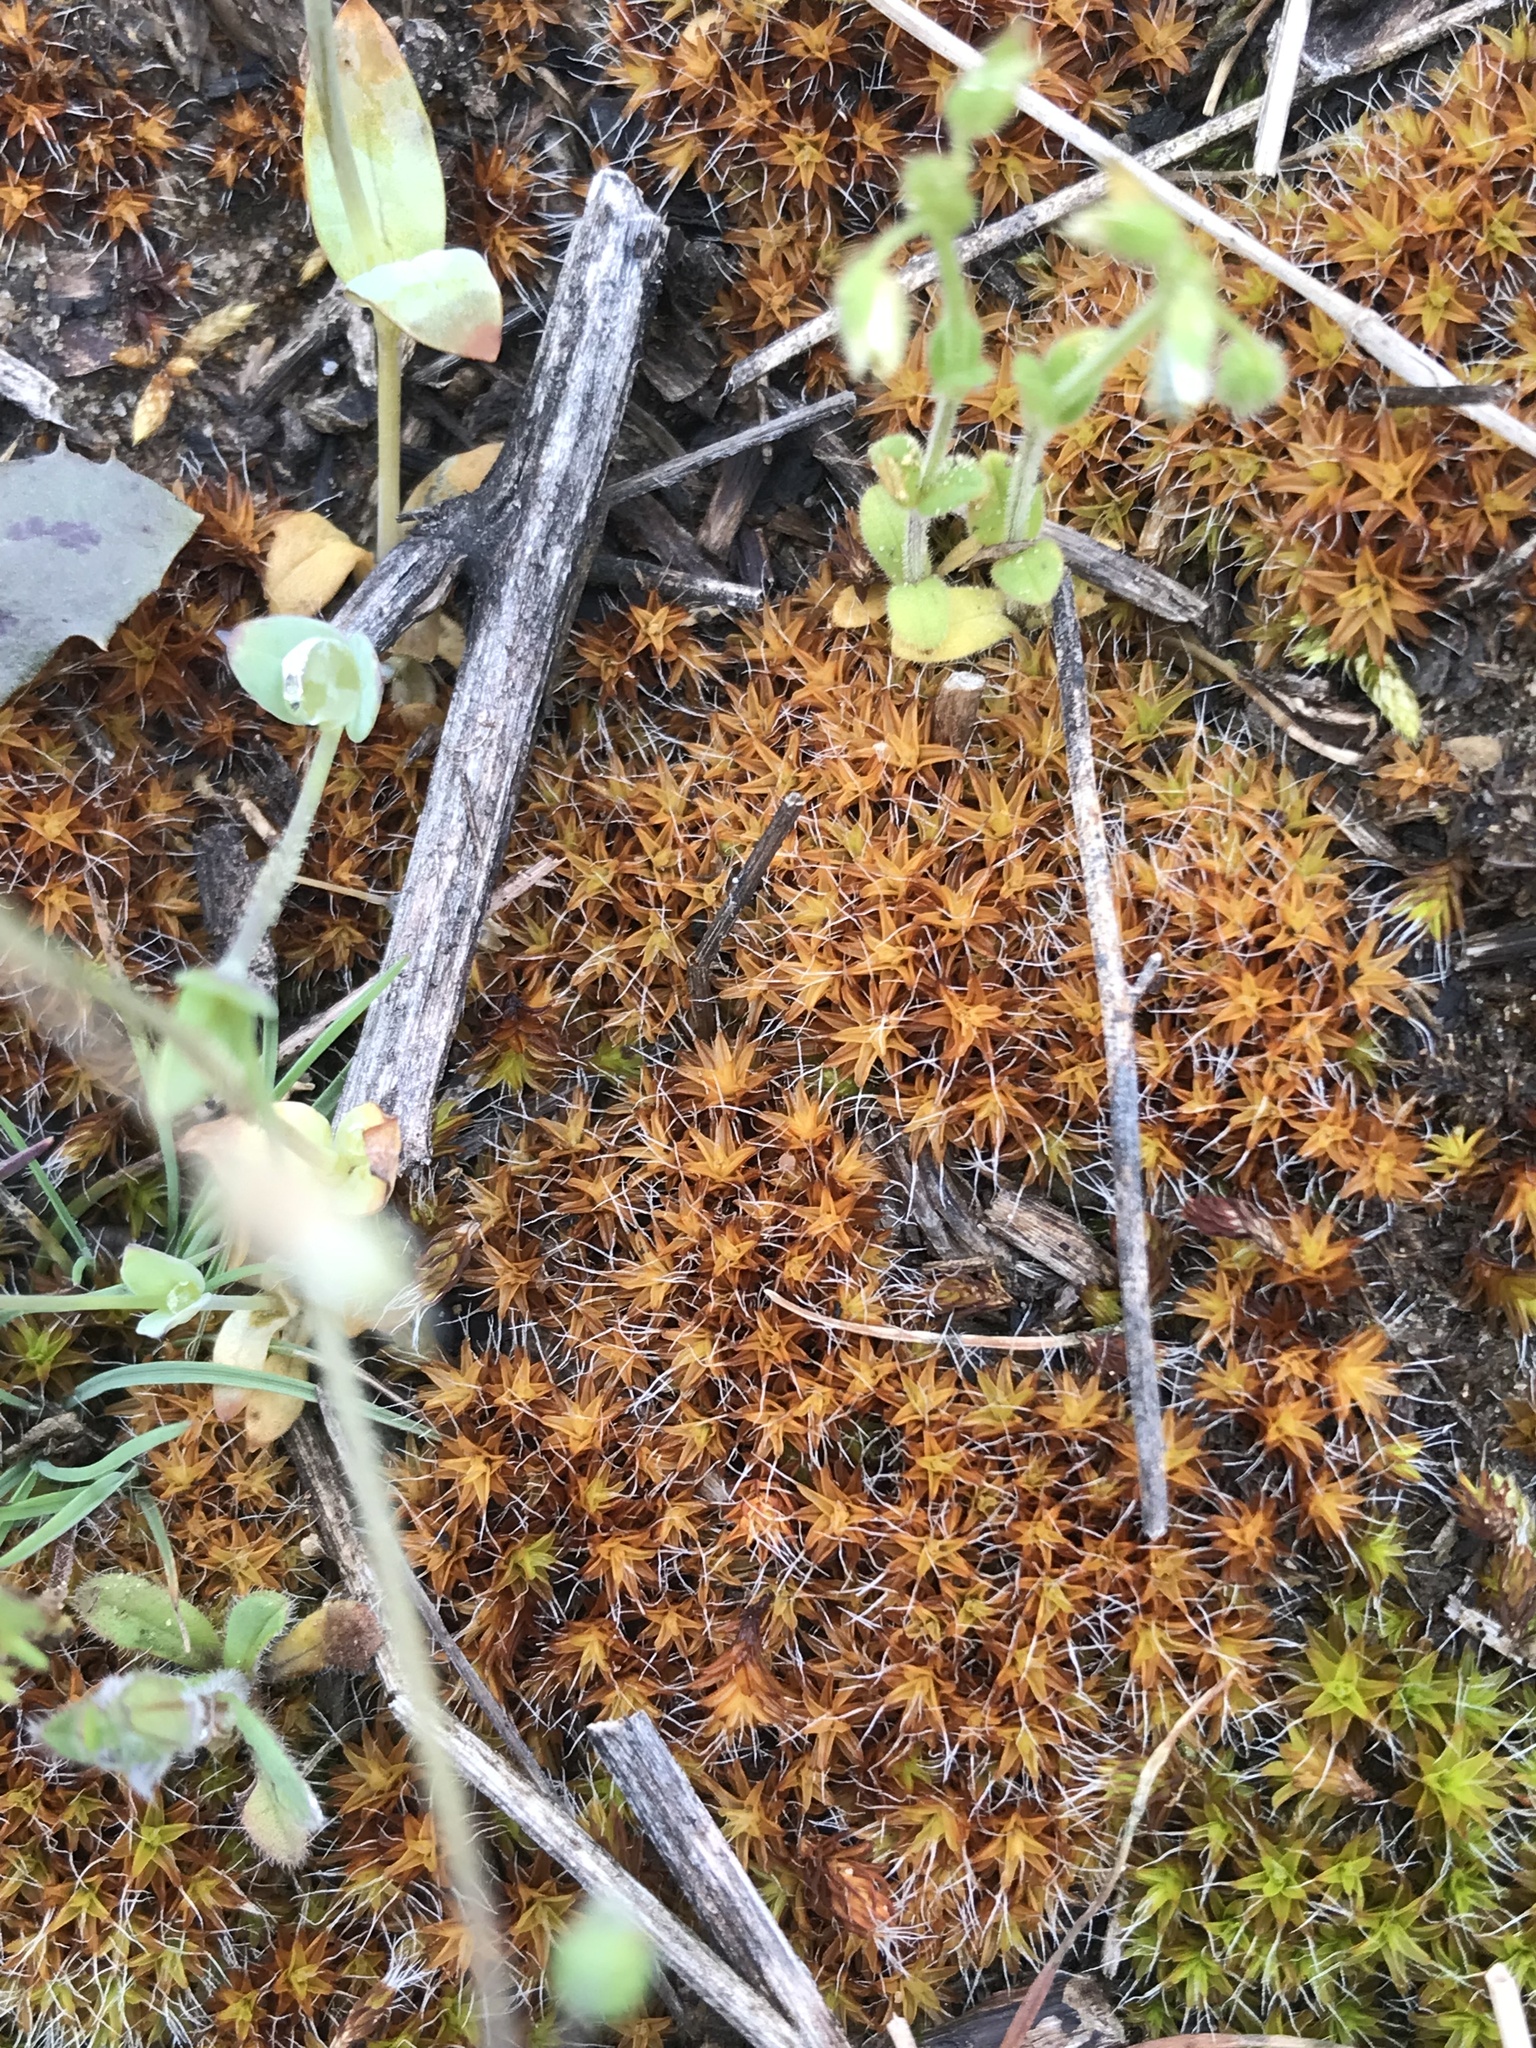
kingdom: Plantae
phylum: Bryophyta
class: Bryopsida
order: Pottiales
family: Pottiaceae
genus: Syntrichia
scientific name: Syntrichia ruralis
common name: Sidewalk screw moss
